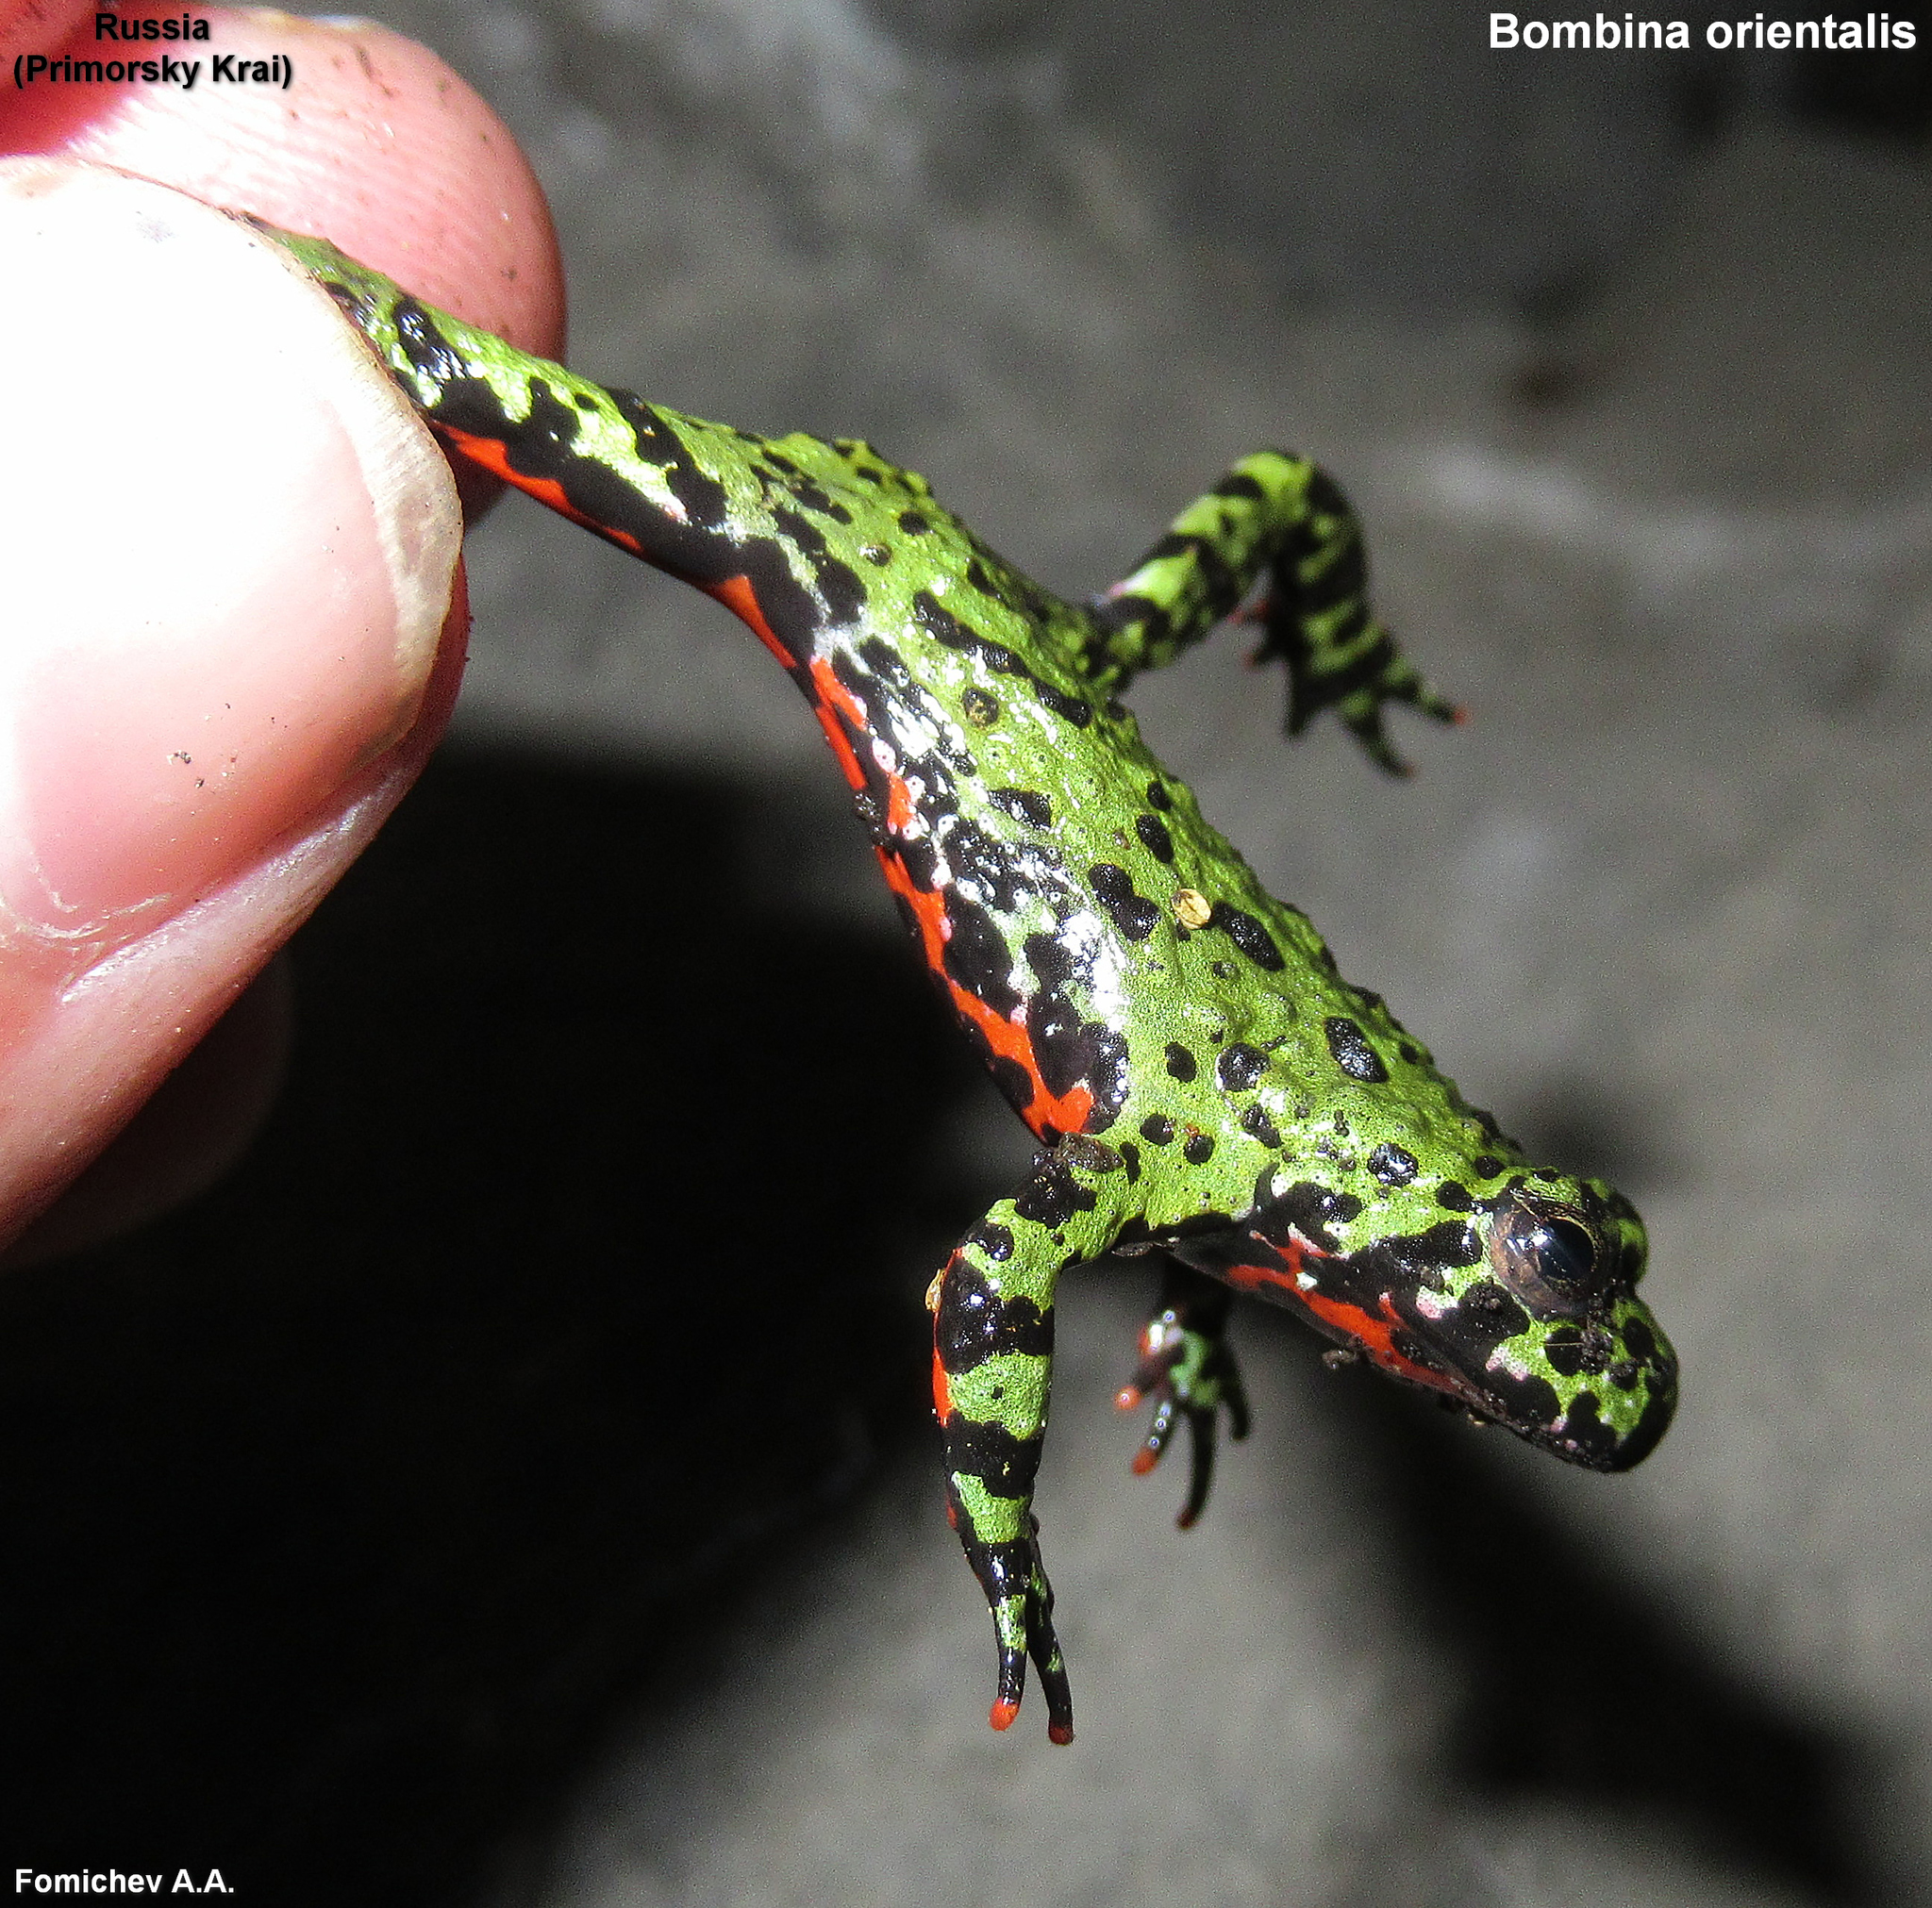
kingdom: Animalia
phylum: Chordata
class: Amphibia
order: Anura
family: Bombinatoridae
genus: Bombina
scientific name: Bombina orientalis
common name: Oriental firebelly toad
